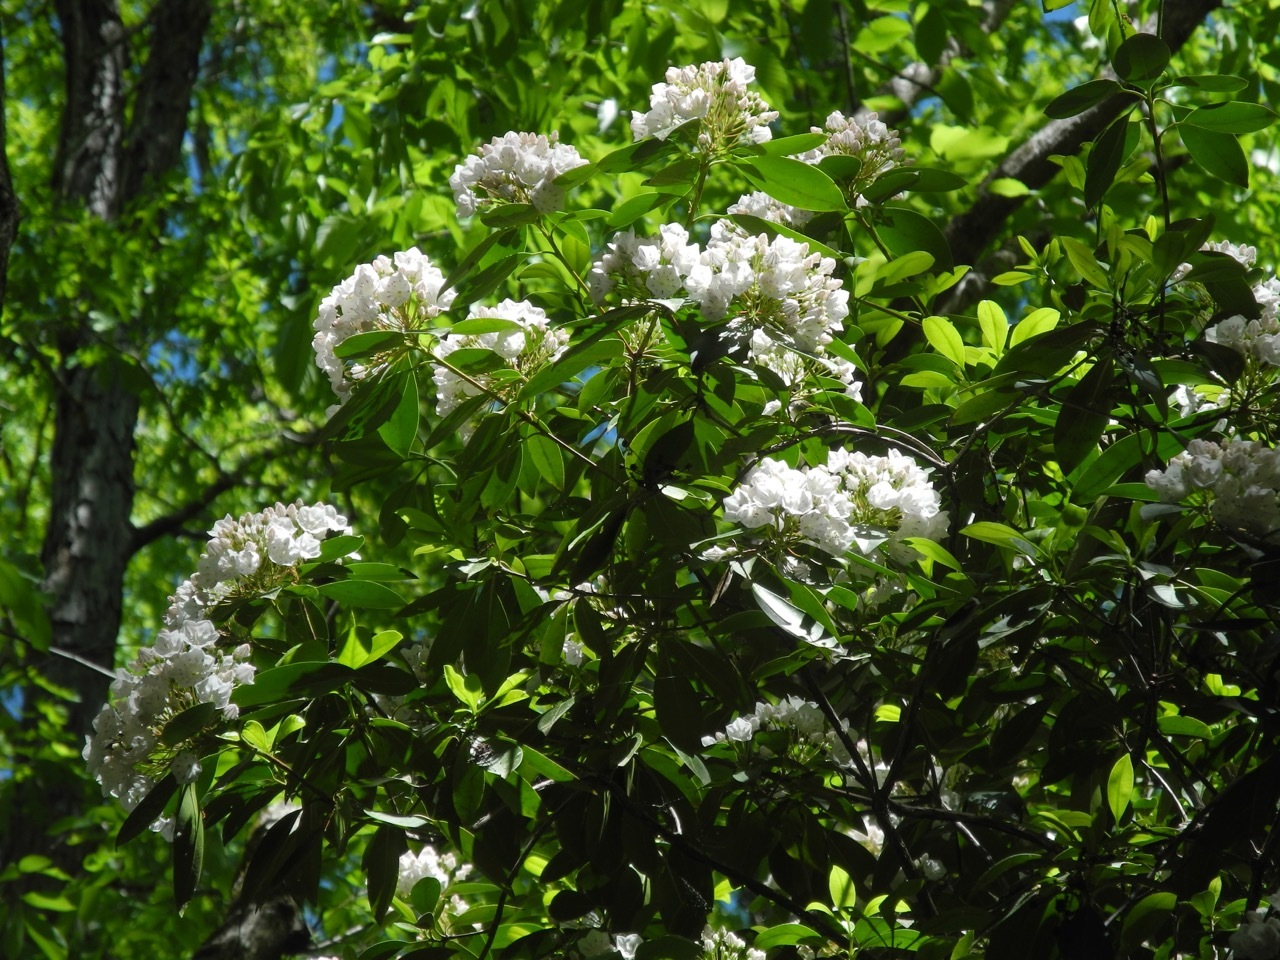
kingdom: Plantae
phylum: Tracheophyta
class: Magnoliopsida
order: Ericales
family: Ericaceae
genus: Kalmia
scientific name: Kalmia latifolia
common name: Mountain-laurel
